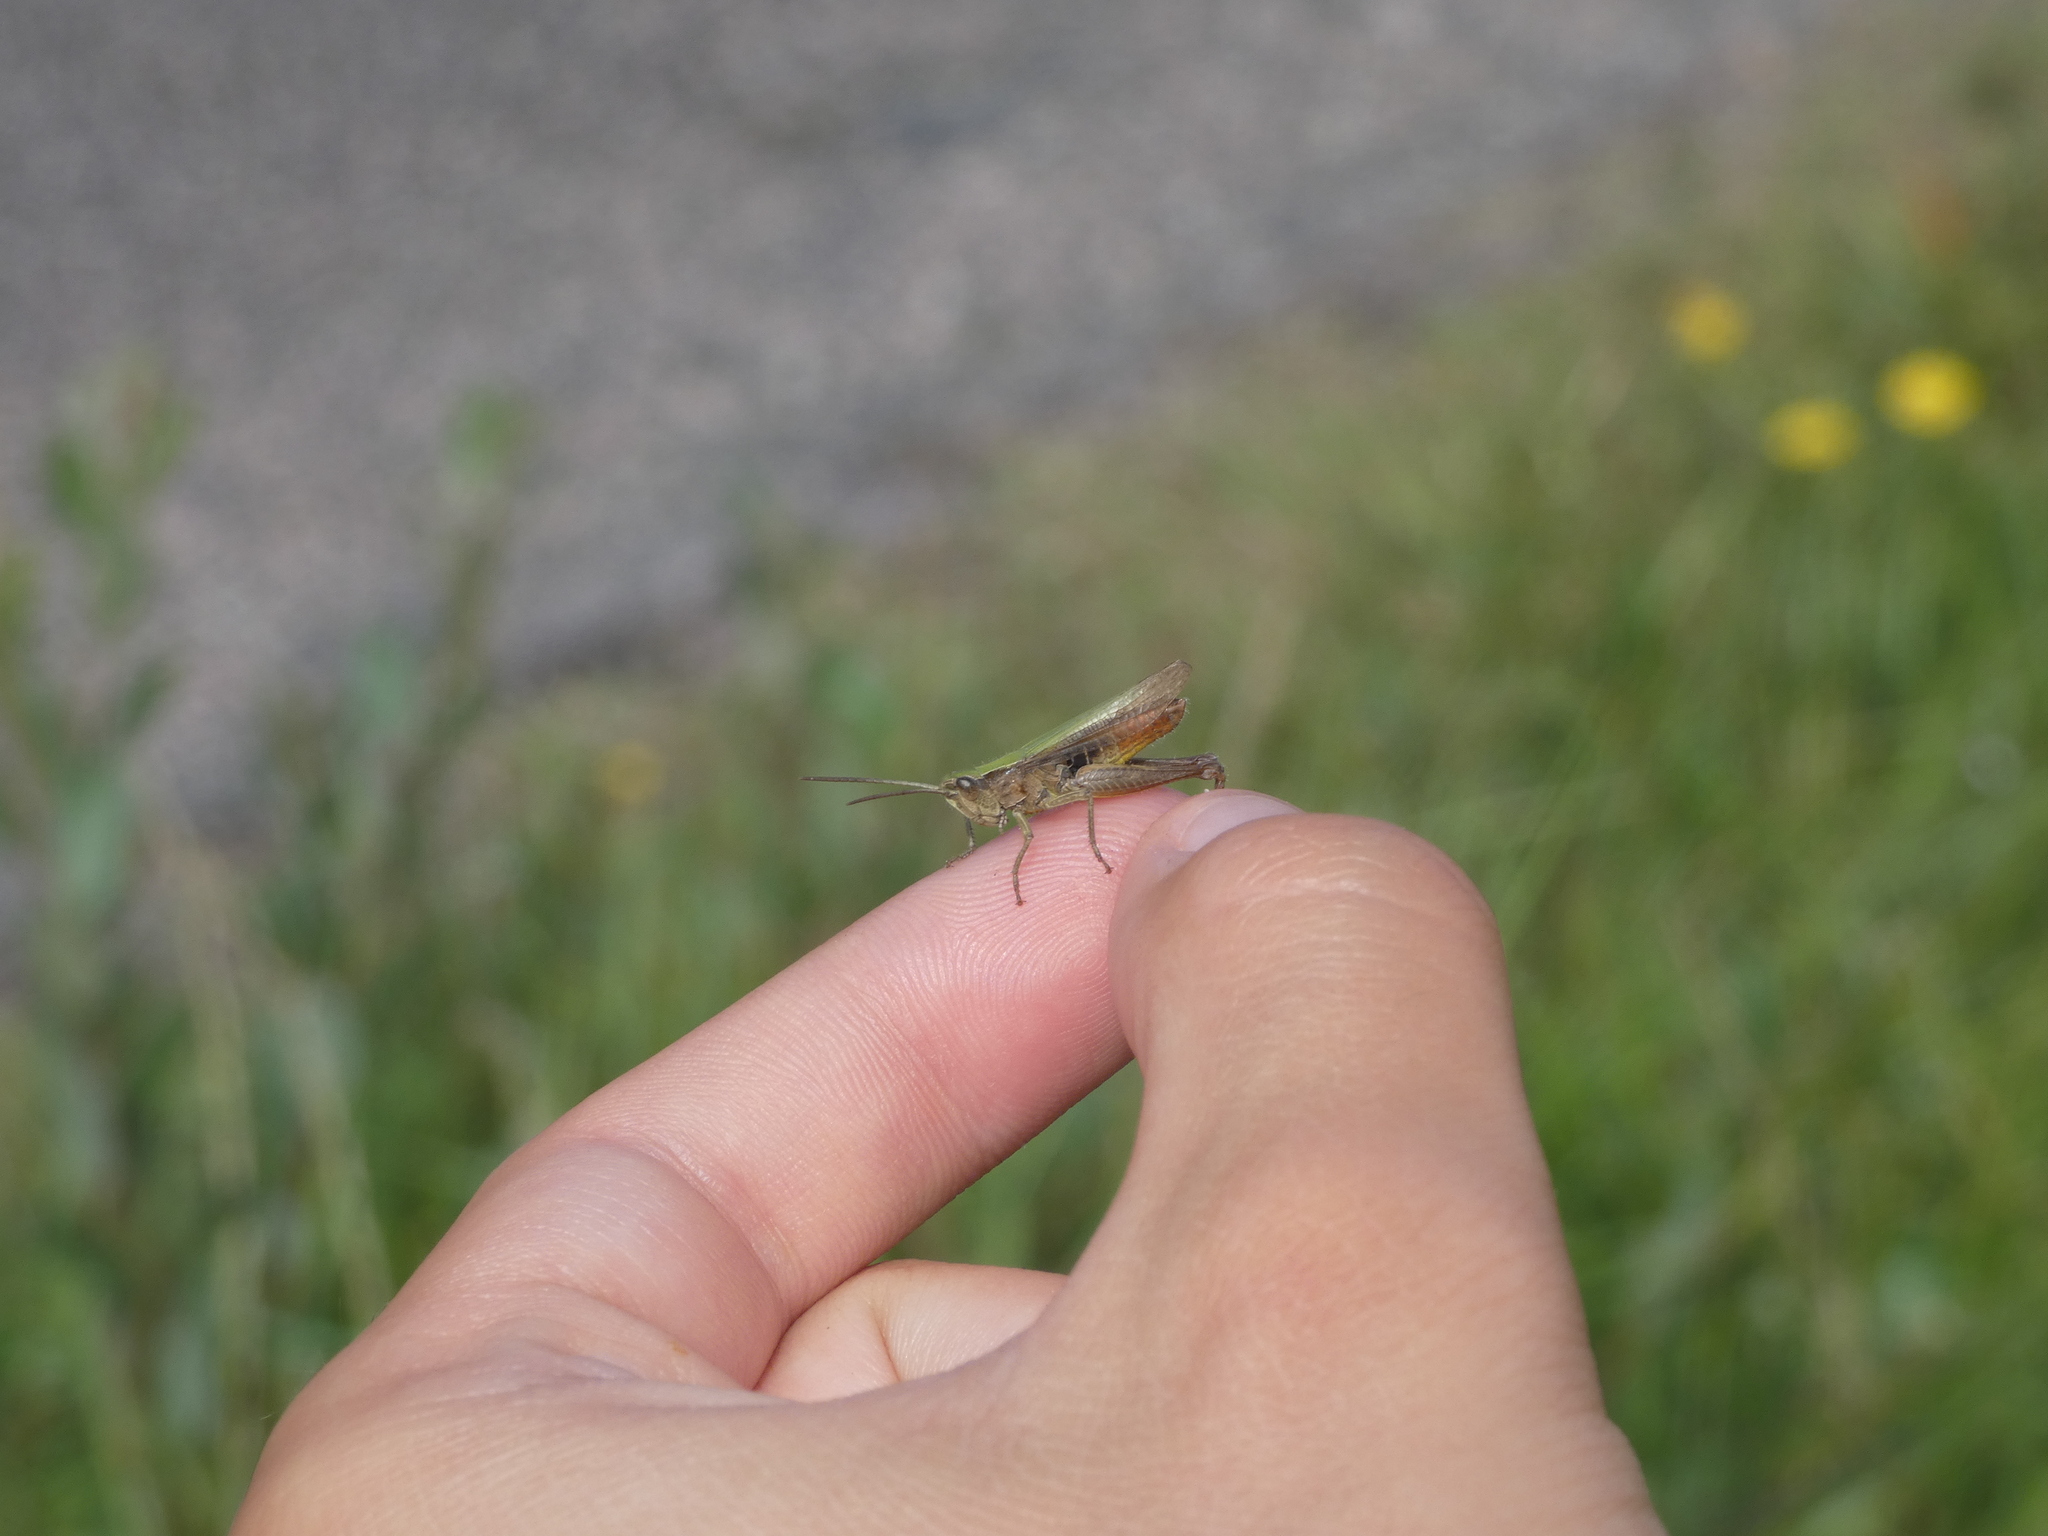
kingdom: Animalia
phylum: Arthropoda
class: Insecta
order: Orthoptera
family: Acrididae
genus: Chorthippus
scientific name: Chorthippus dorsatus
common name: Steppe grasshopper
